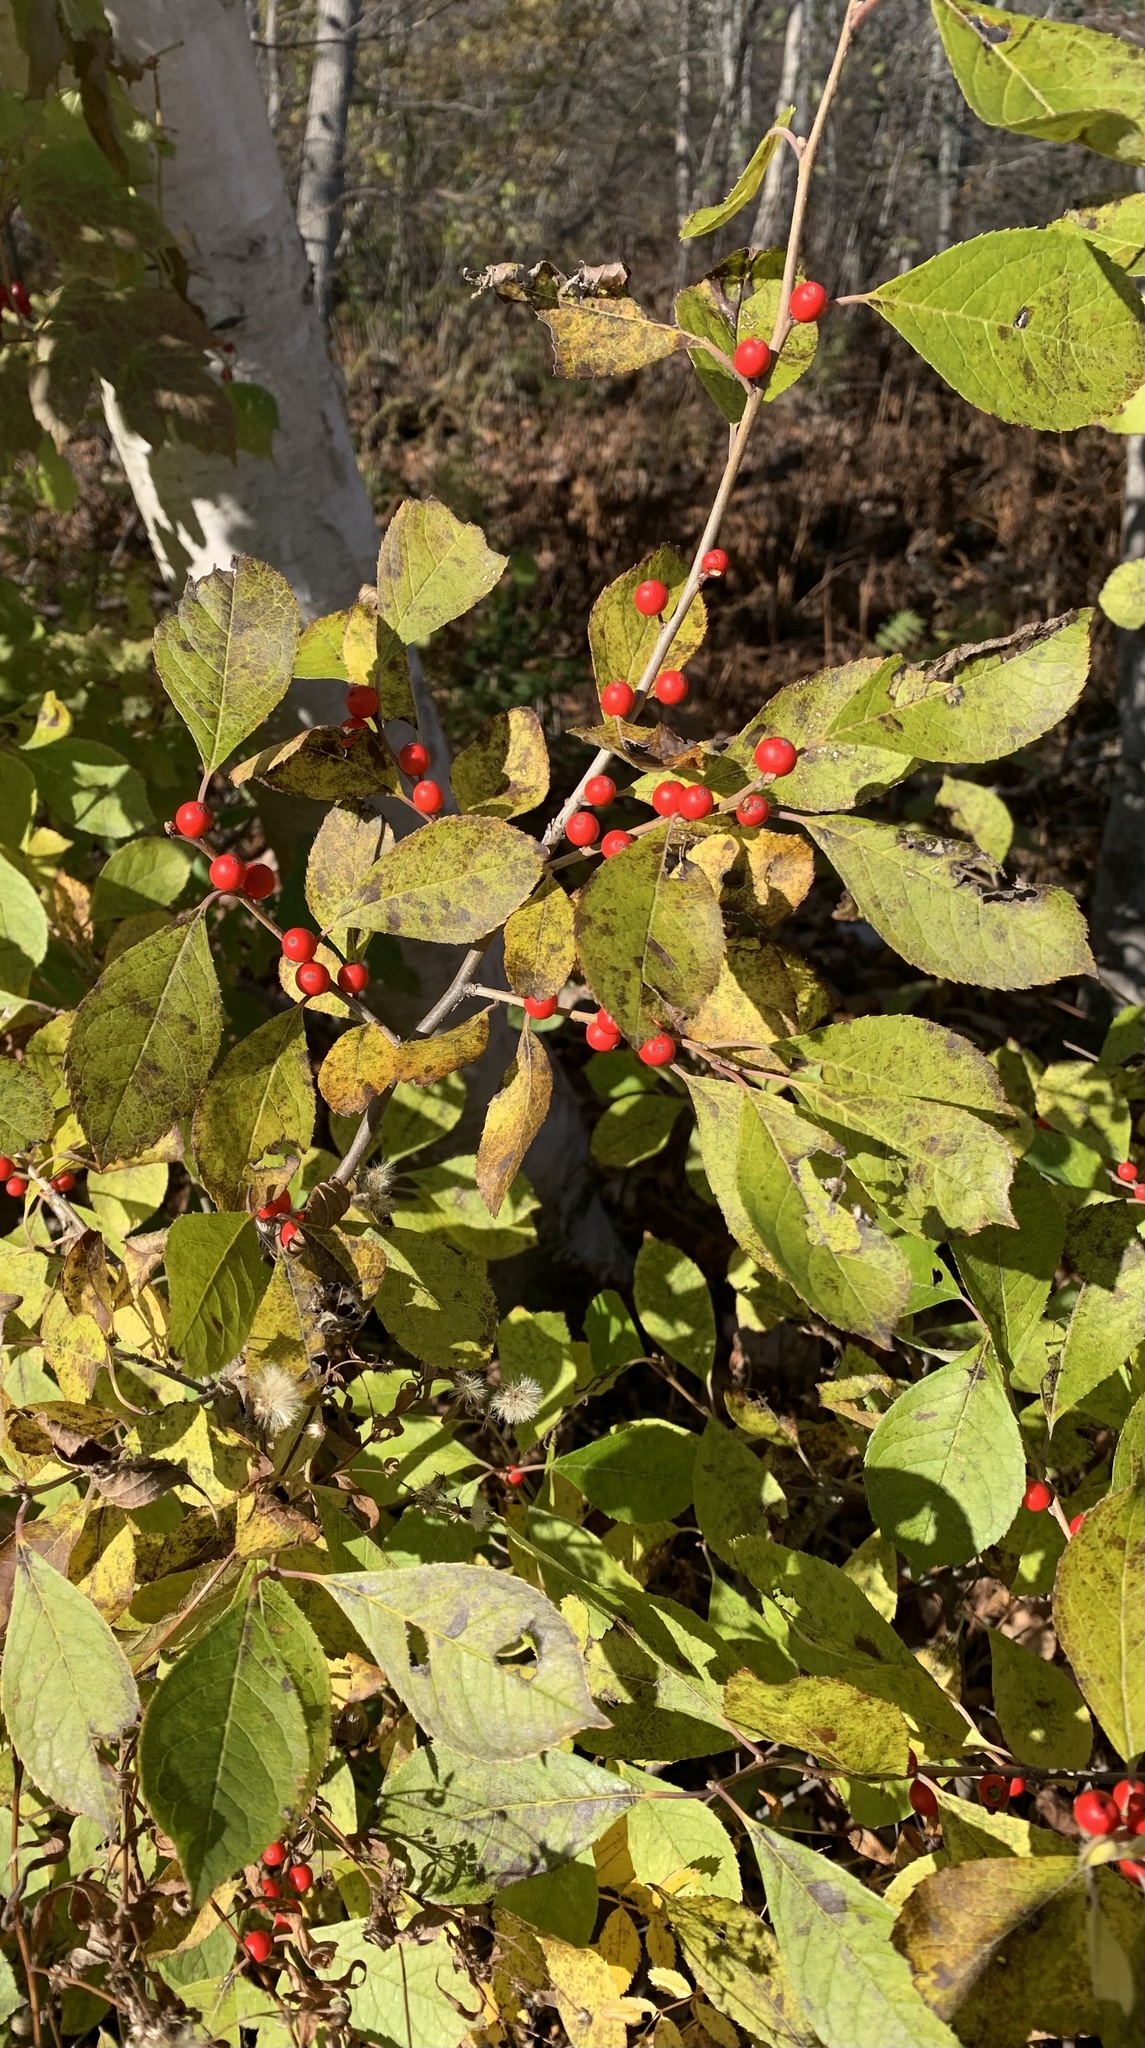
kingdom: Plantae
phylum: Tracheophyta
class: Magnoliopsida
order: Aquifoliales
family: Aquifoliaceae
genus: Ilex
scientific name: Ilex verticillata
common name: Virginia winterberry
